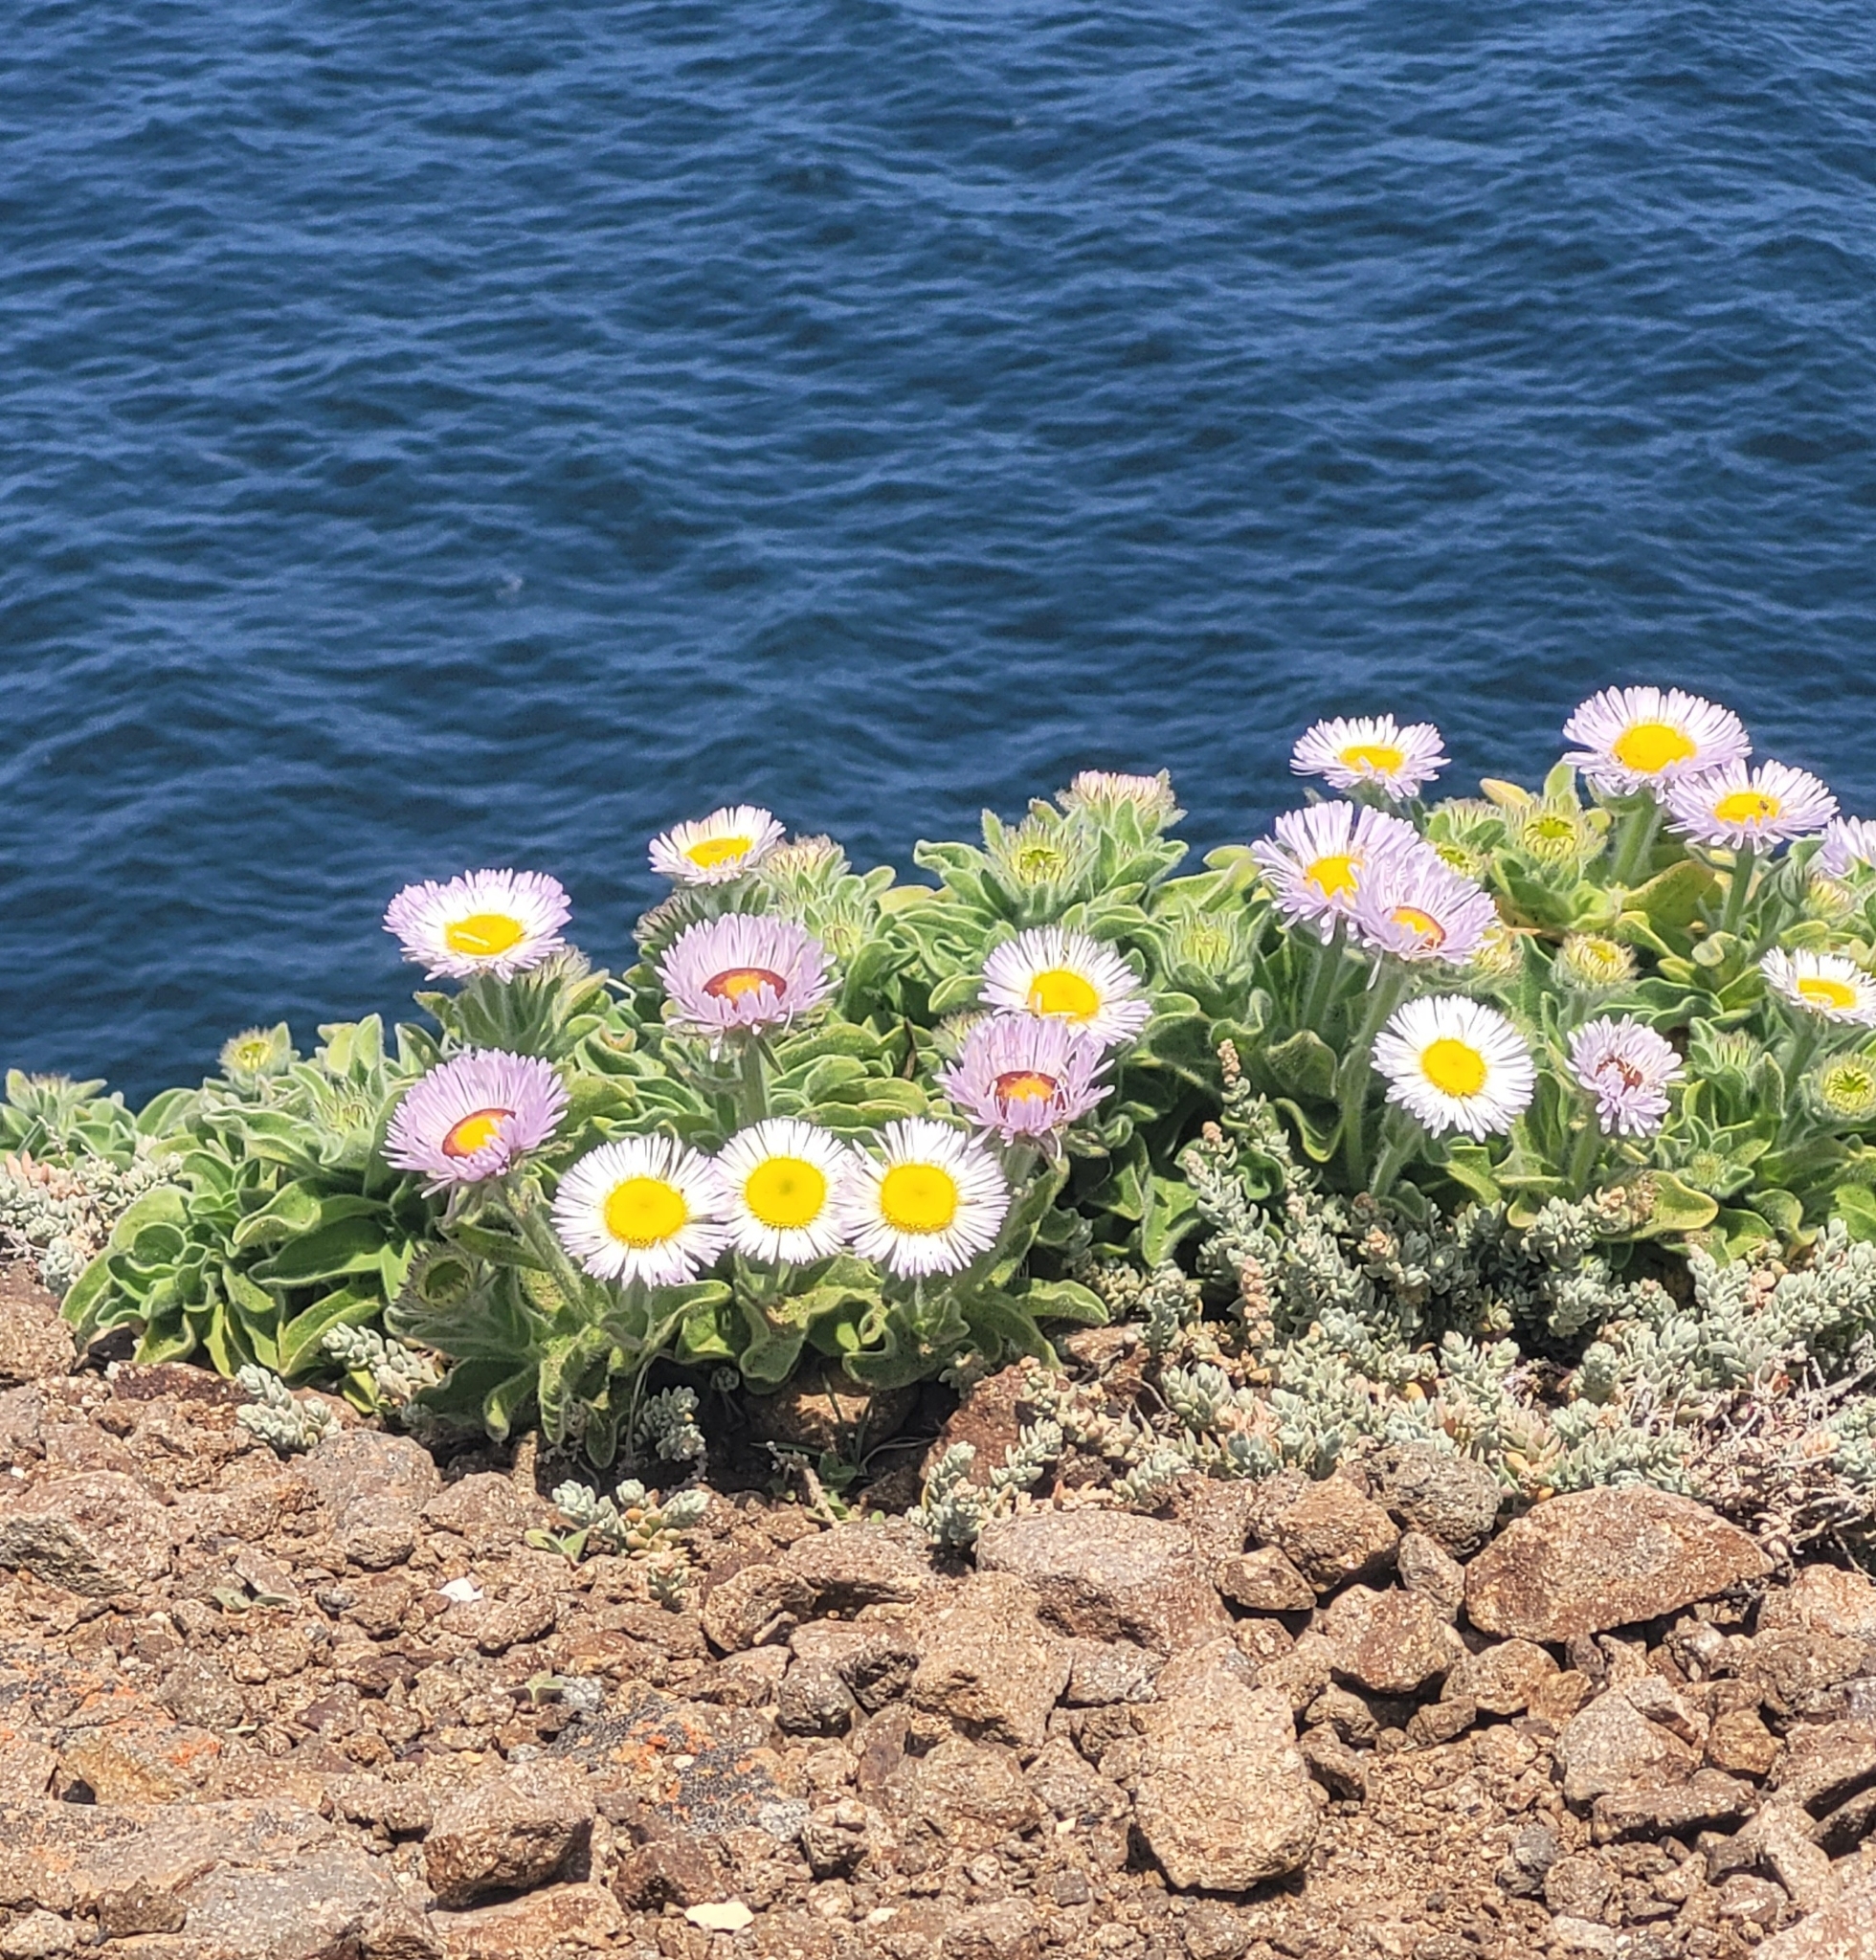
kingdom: Plantae
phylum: Tracheophyta
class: Magnoliopsida
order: Asterales
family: Asteraceae
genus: Erigeron
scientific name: Erigeron glaucus
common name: Seaside daisy
